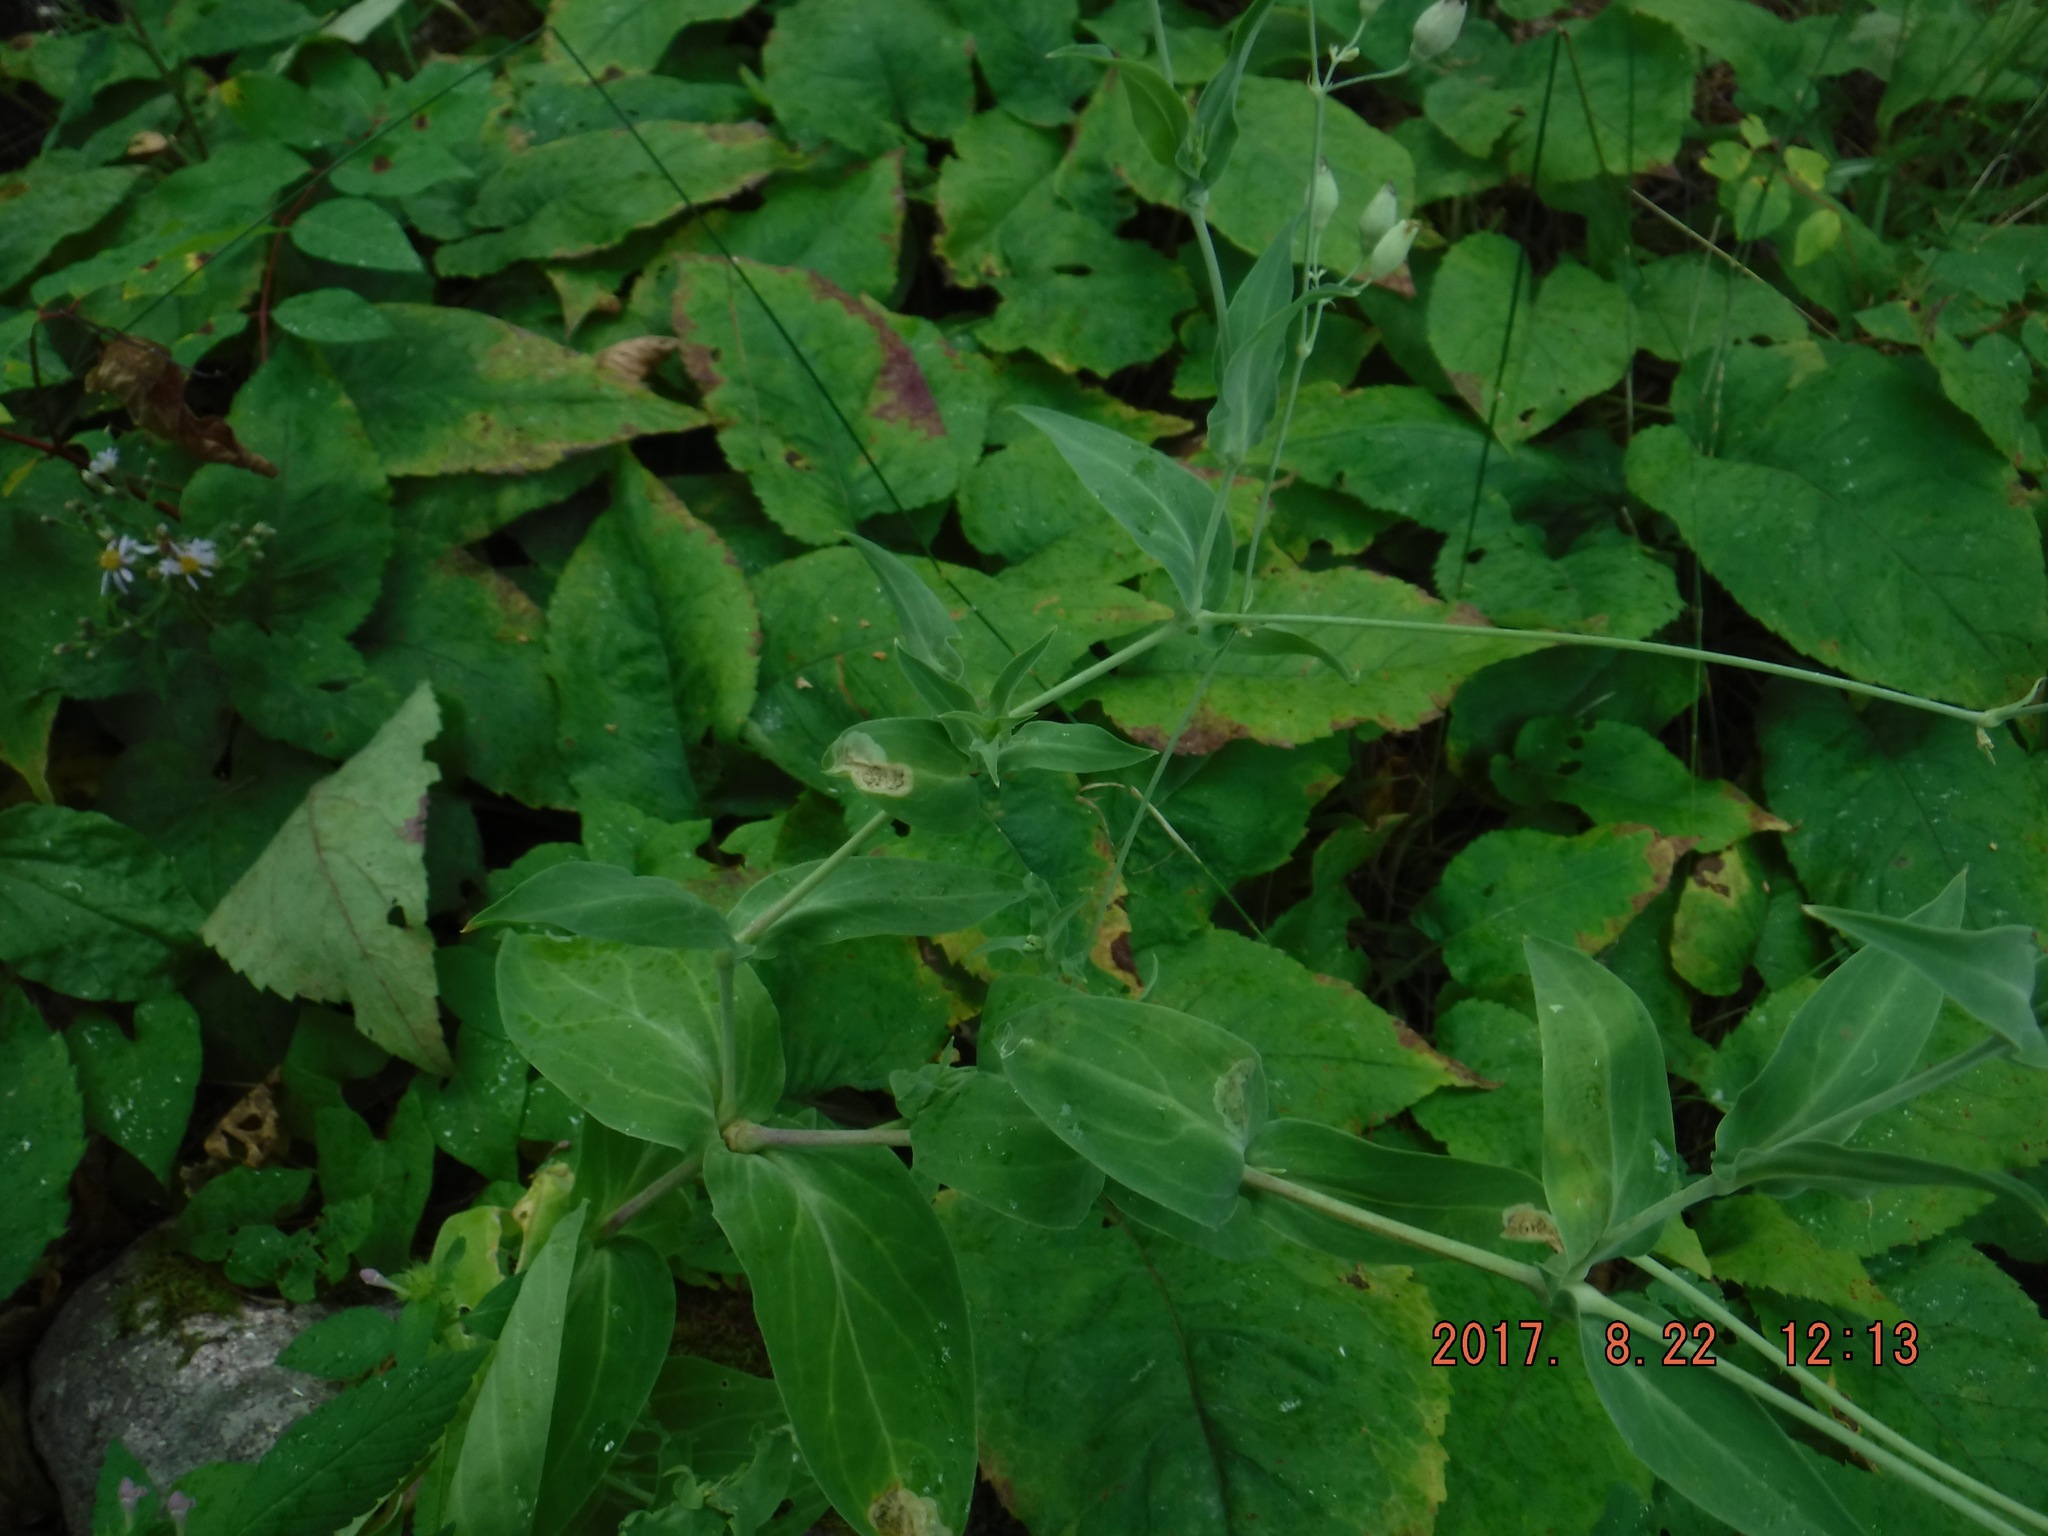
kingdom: Plantae
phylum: Tracheophyta
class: Magnoliopsida
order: Caryophyllales
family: Caryophyllaceae
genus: Silene
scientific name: Silene csereii
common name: Balkan catchfly
